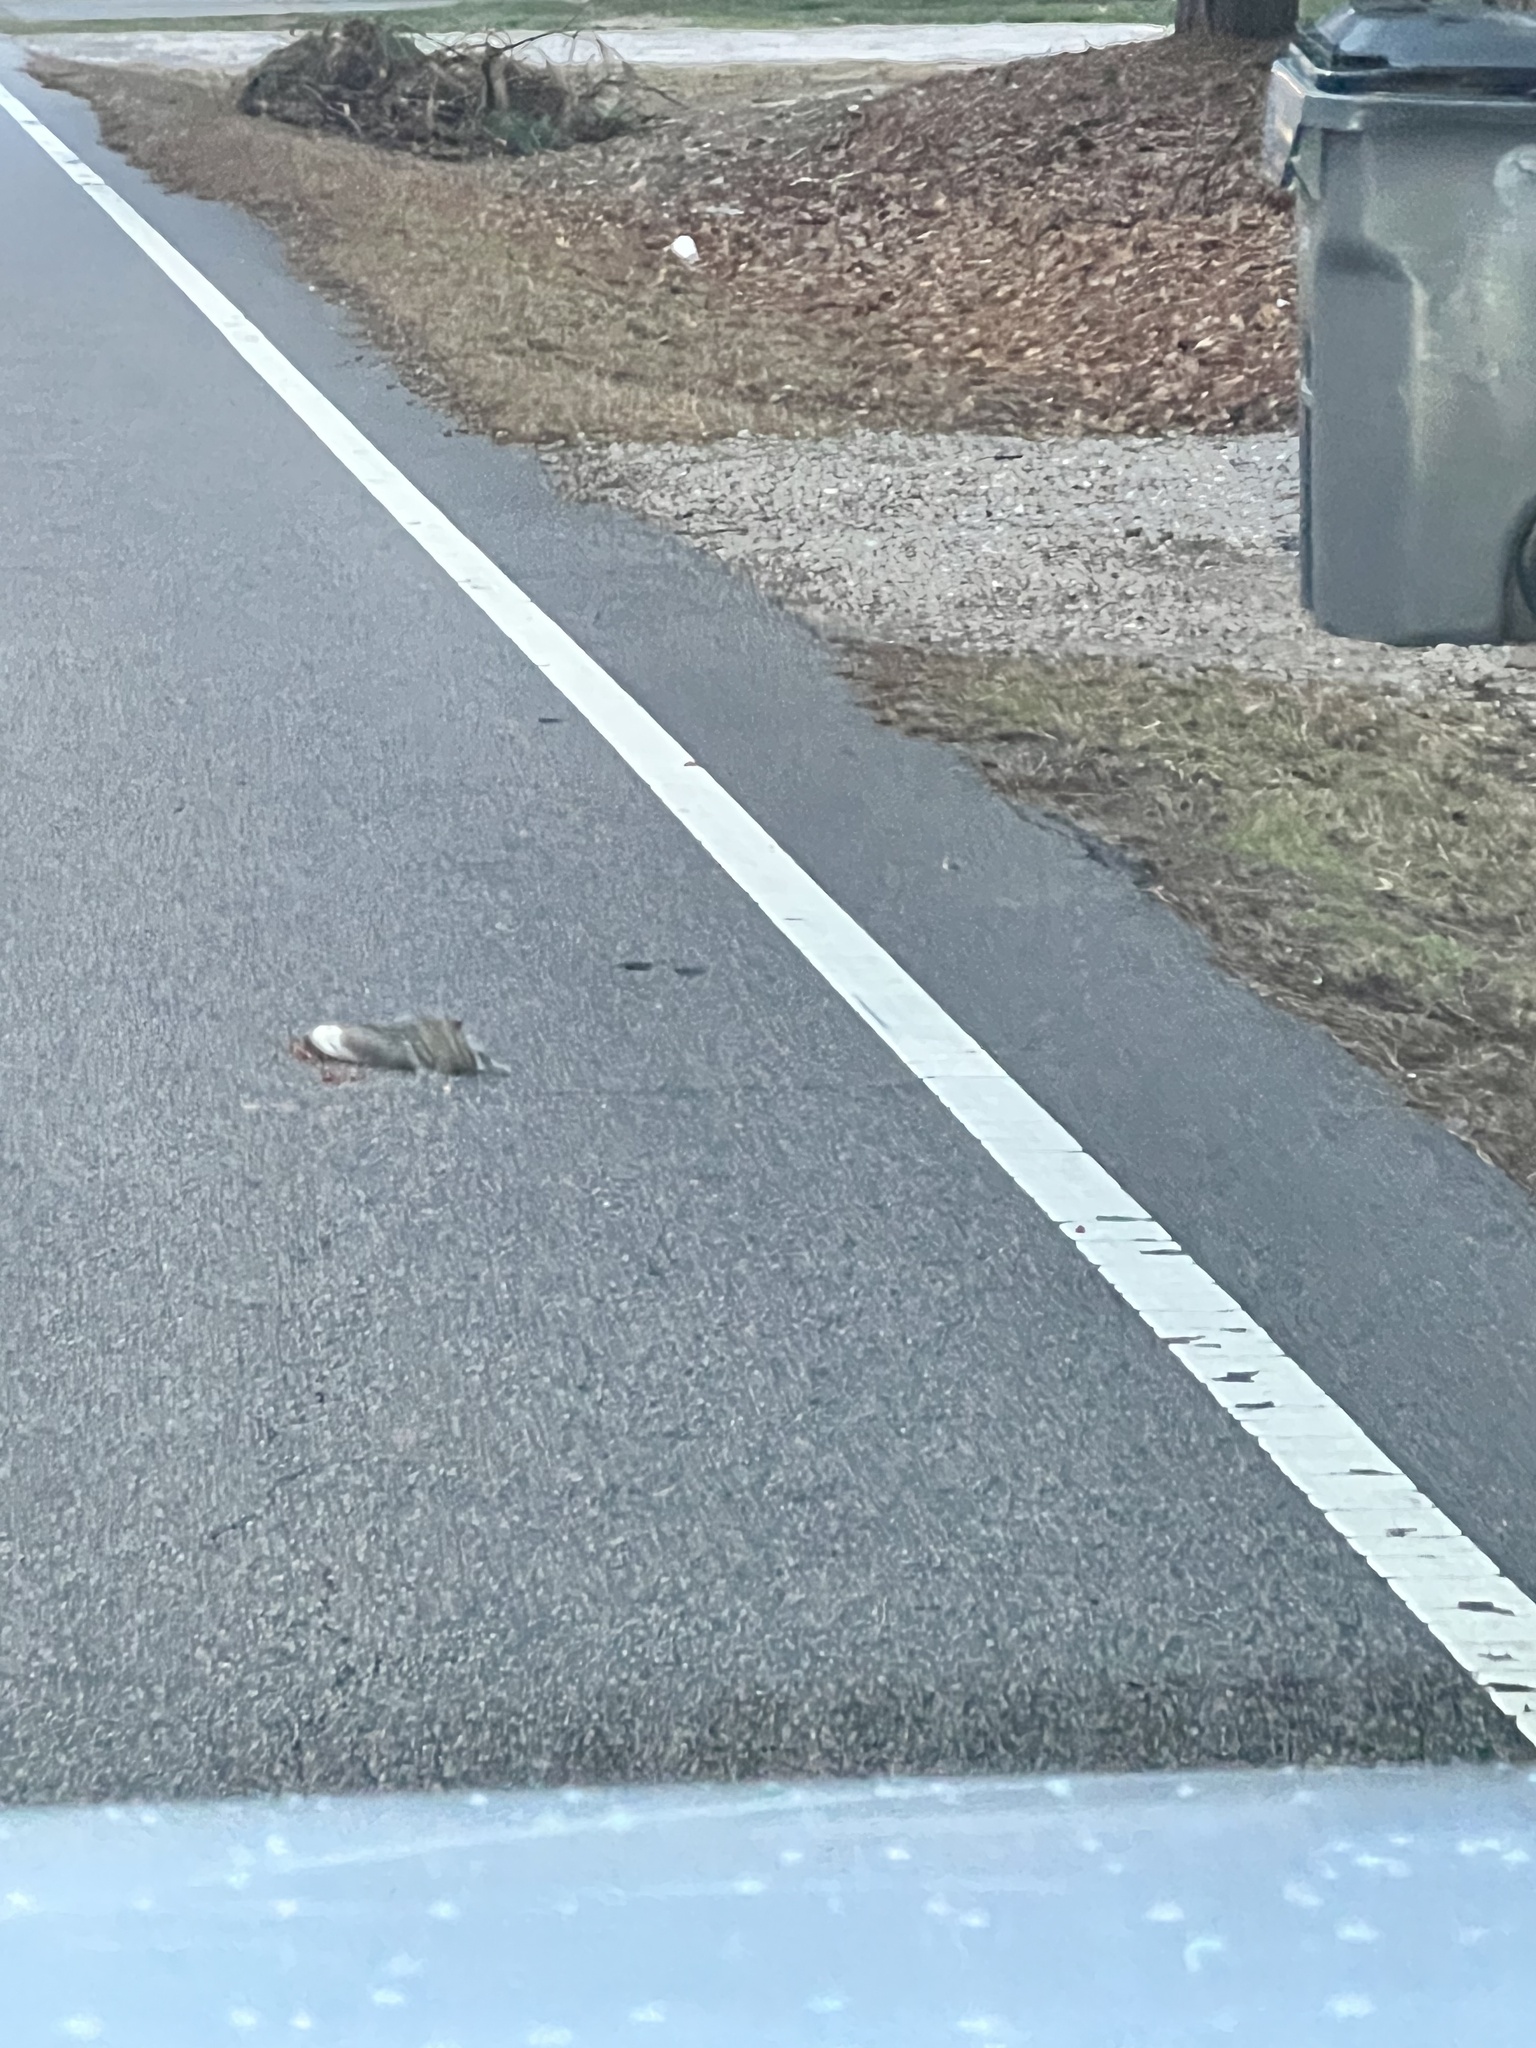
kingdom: Animalia
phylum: Chordata
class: Mammalia
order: Rodentia
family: Sciuridae
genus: Sciurus
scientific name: Sciurus carolinensis
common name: Eastern gray squirrel
